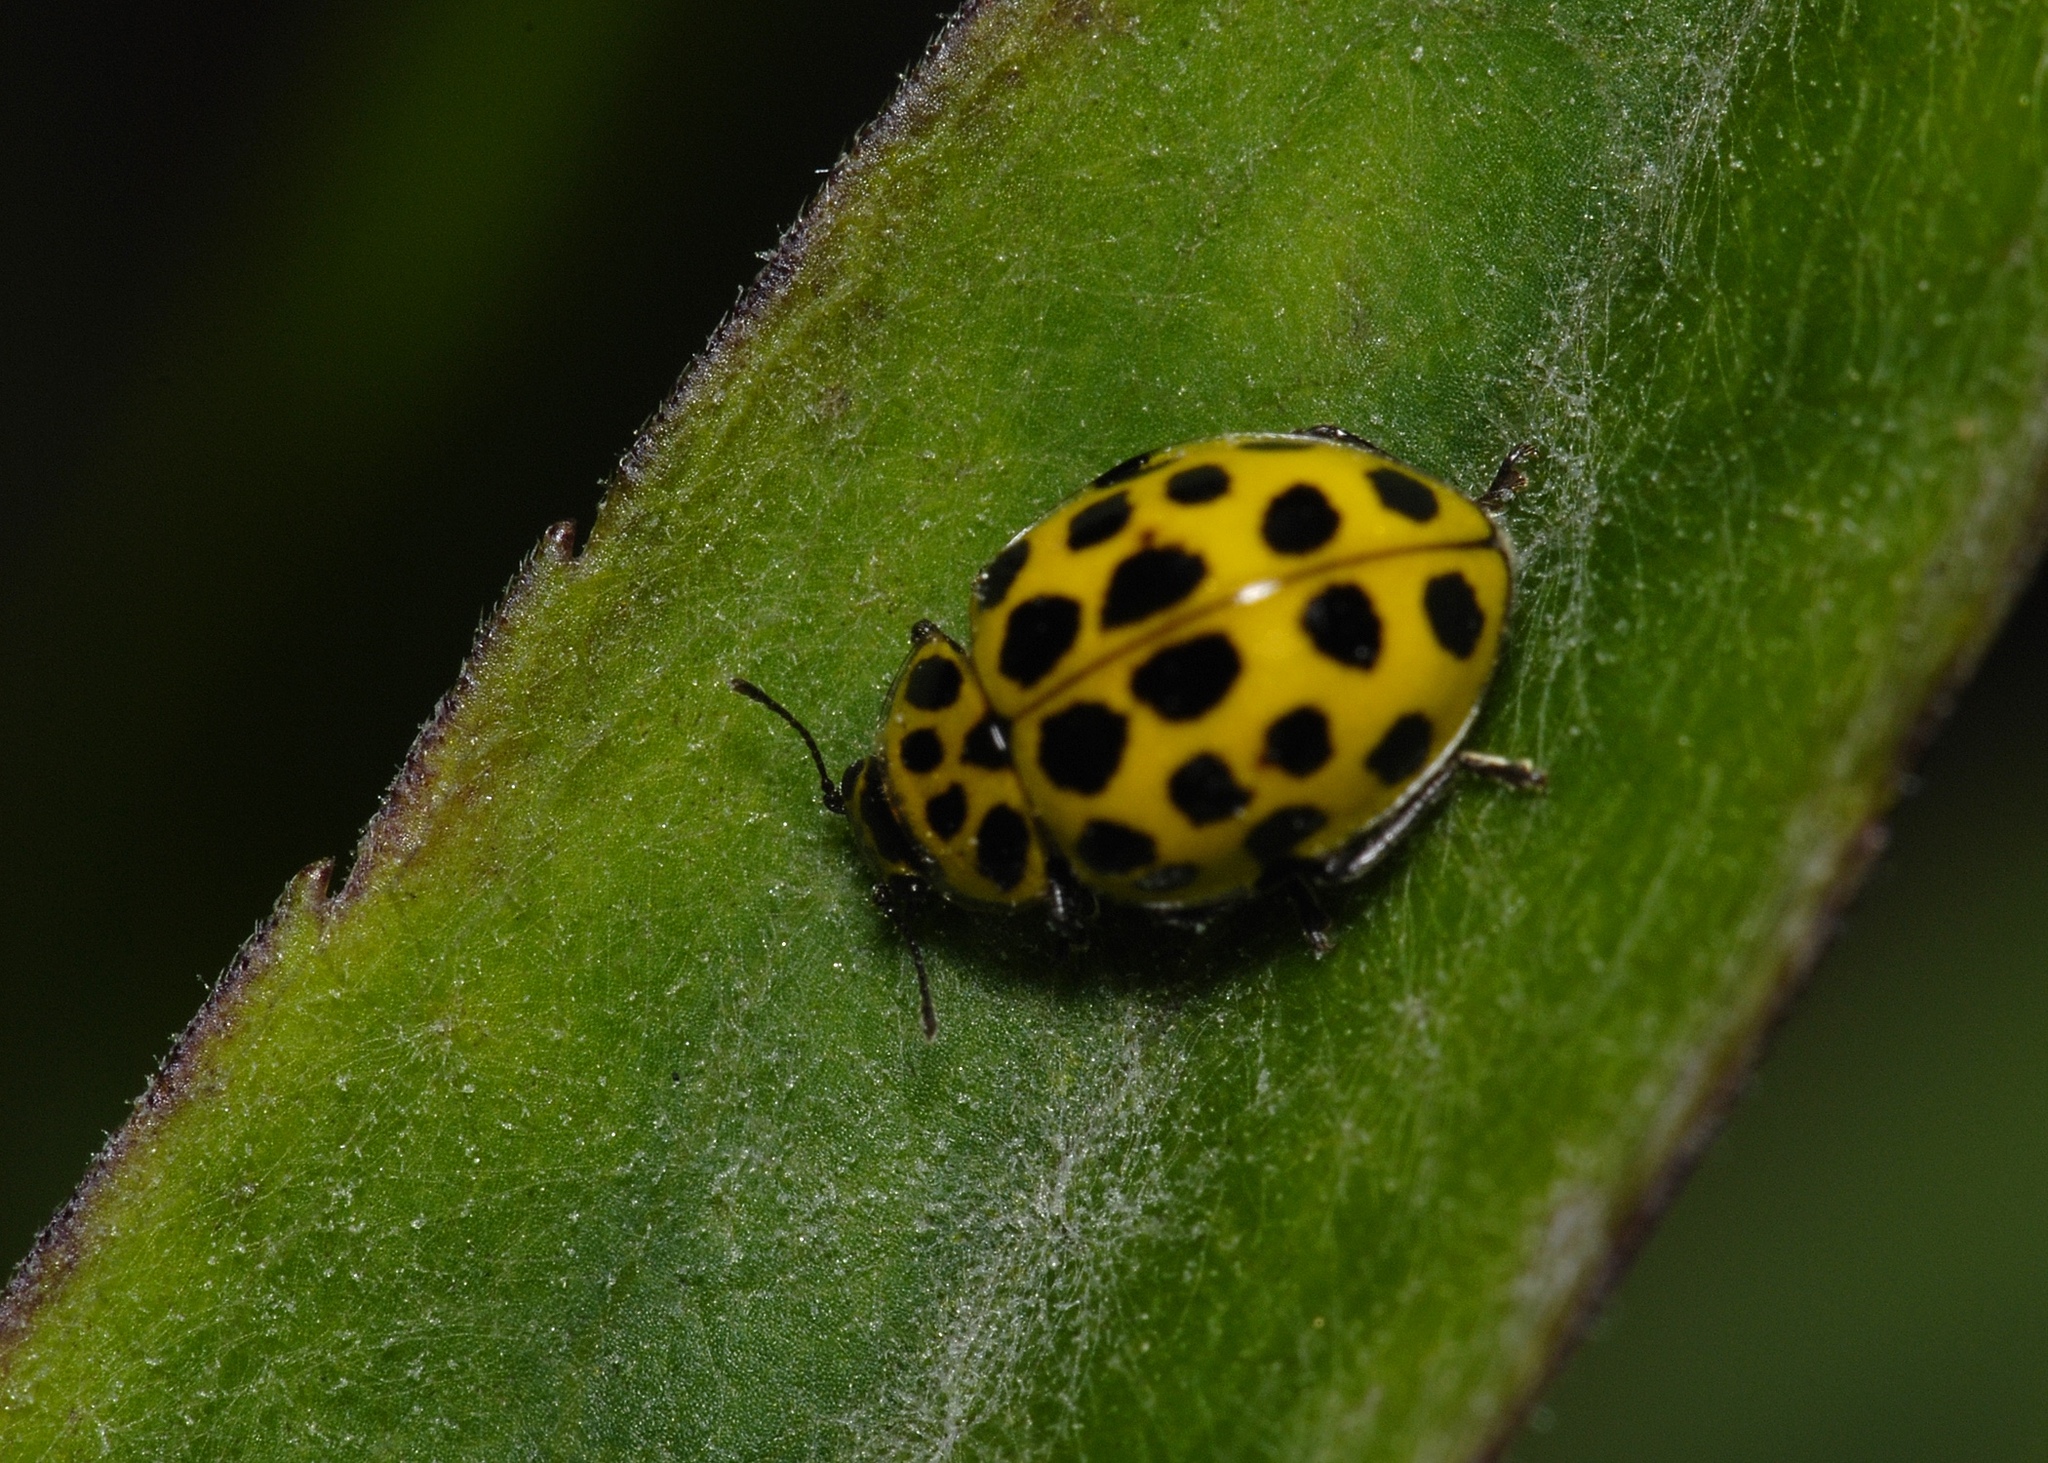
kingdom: Animalia
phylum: Arthropoda
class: Insecta
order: Coleoptera
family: Coccinellidae
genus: Psyllobora
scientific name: Psyllobora vigintiduopunctata
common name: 22-spot ladybird
